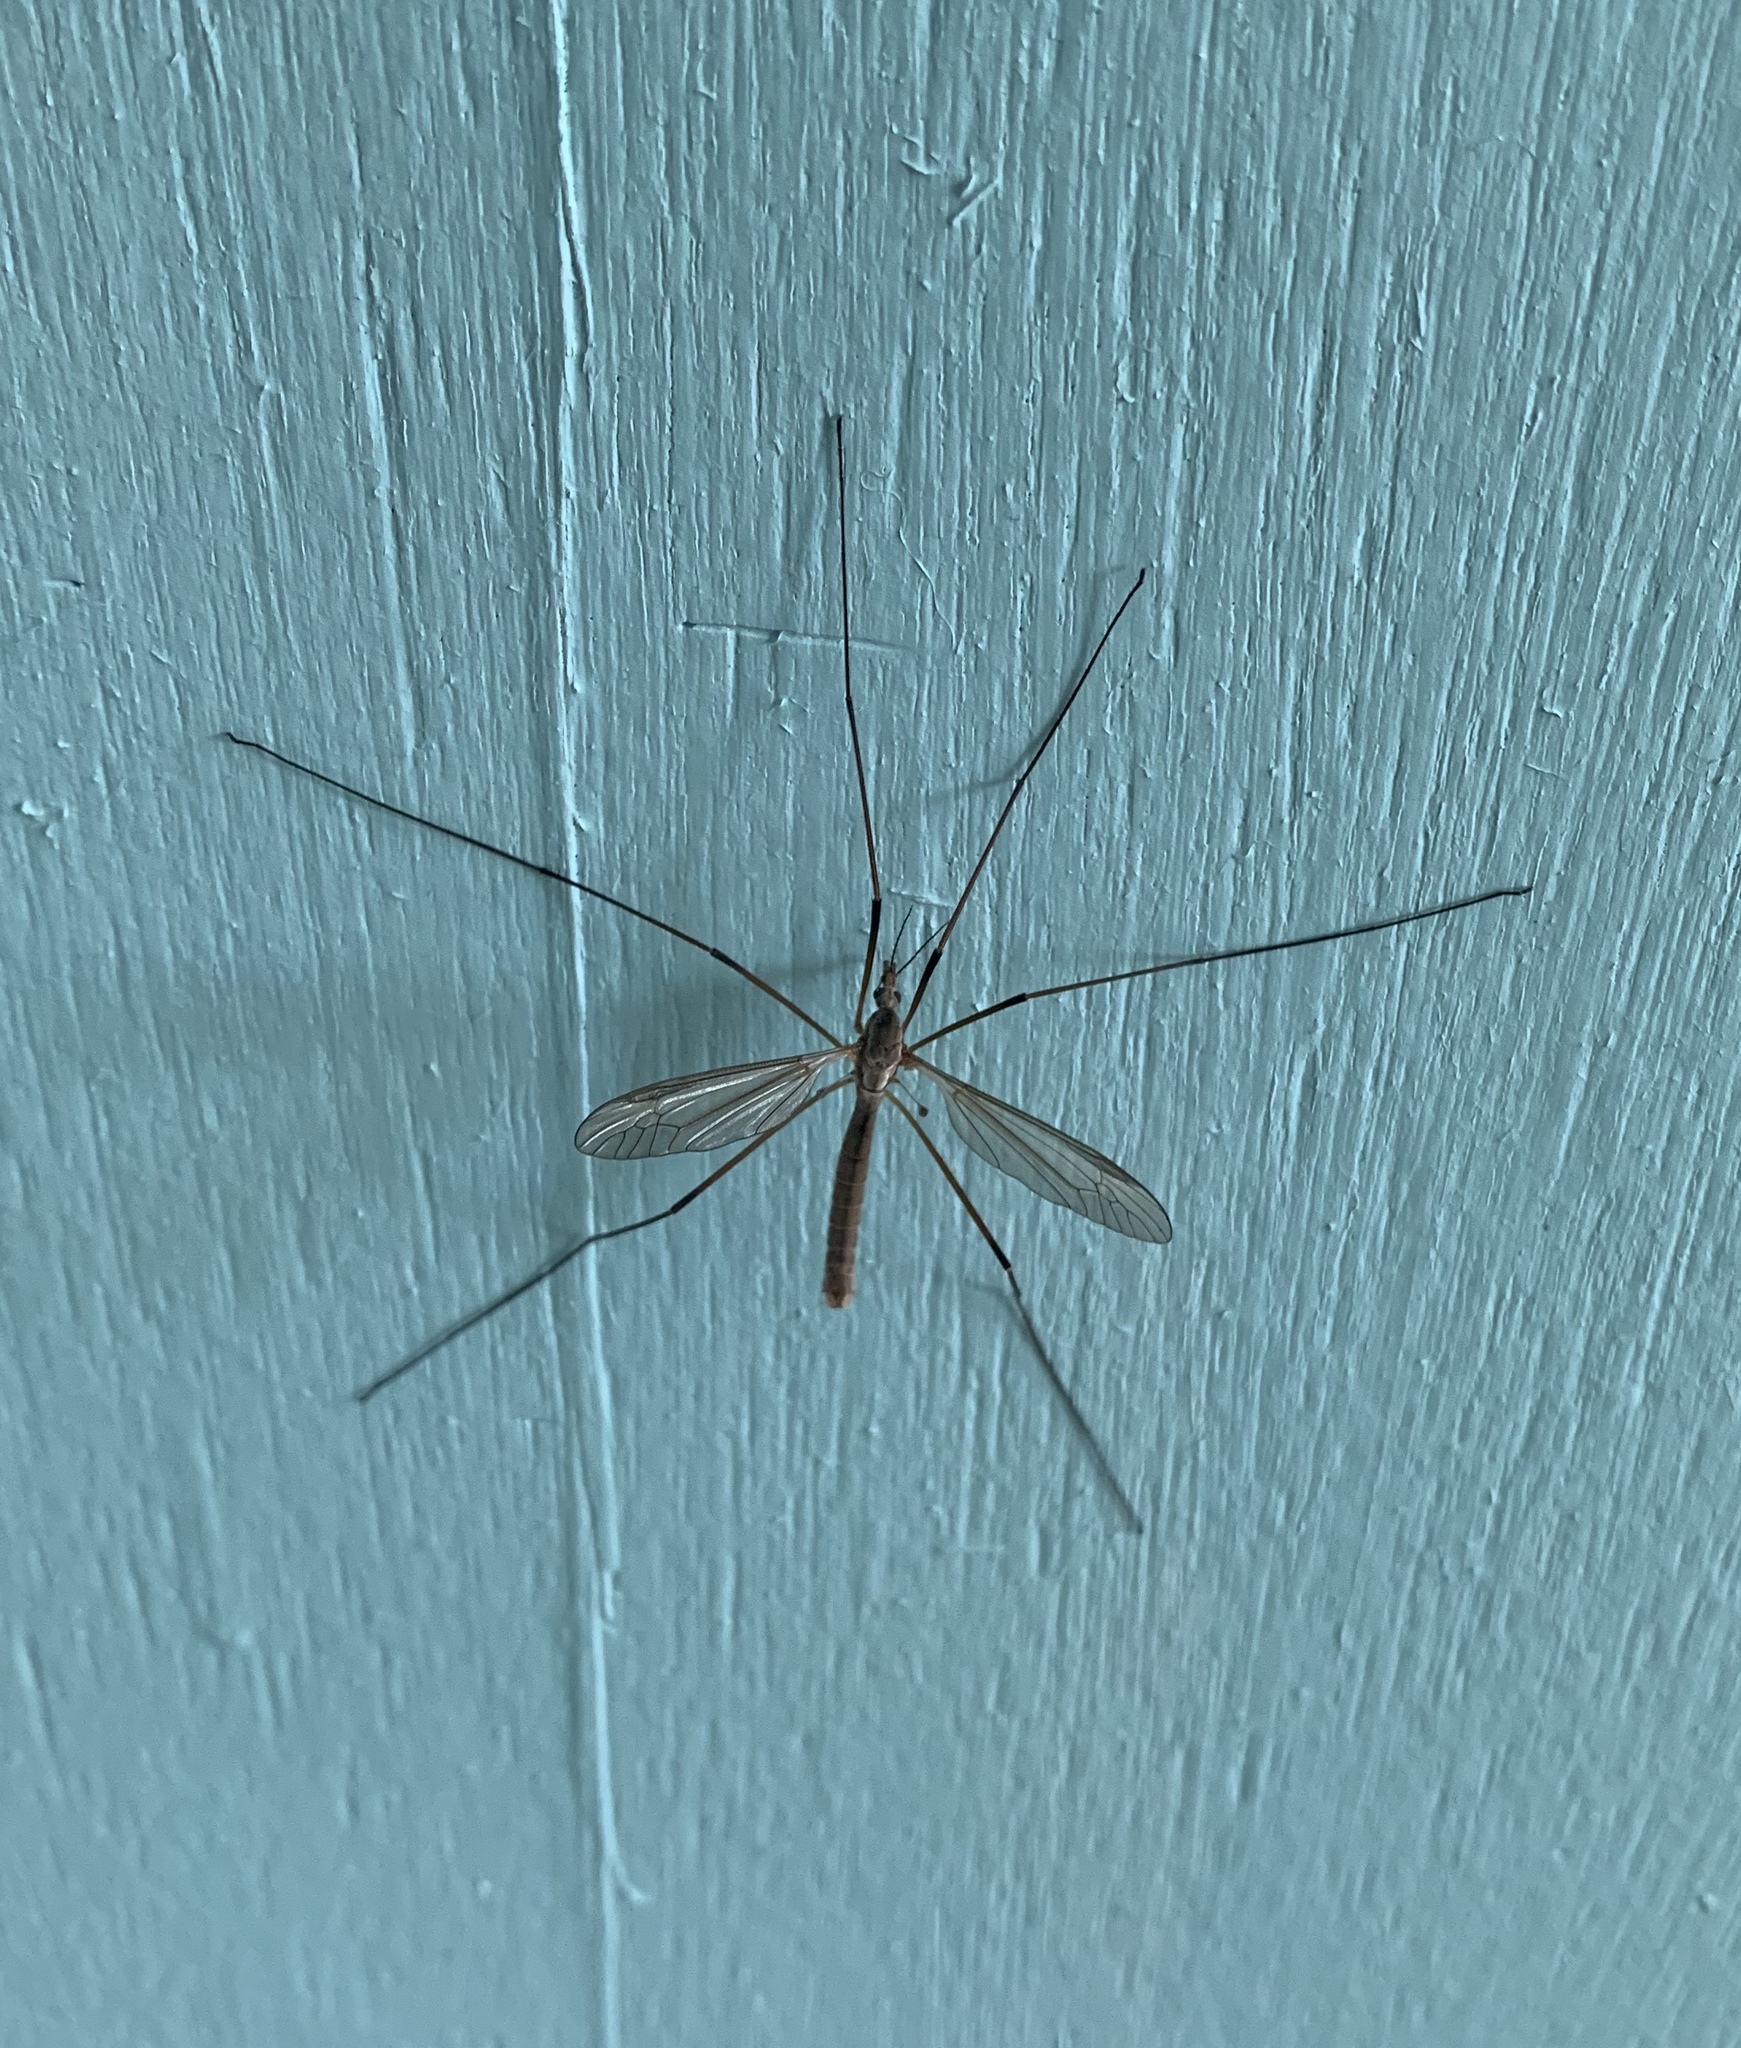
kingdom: Animalia
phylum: Arthropoda
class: Insecta
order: Diptera
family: Tipulidae
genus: Tipula
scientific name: Tipula paludosa
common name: European cranefly
